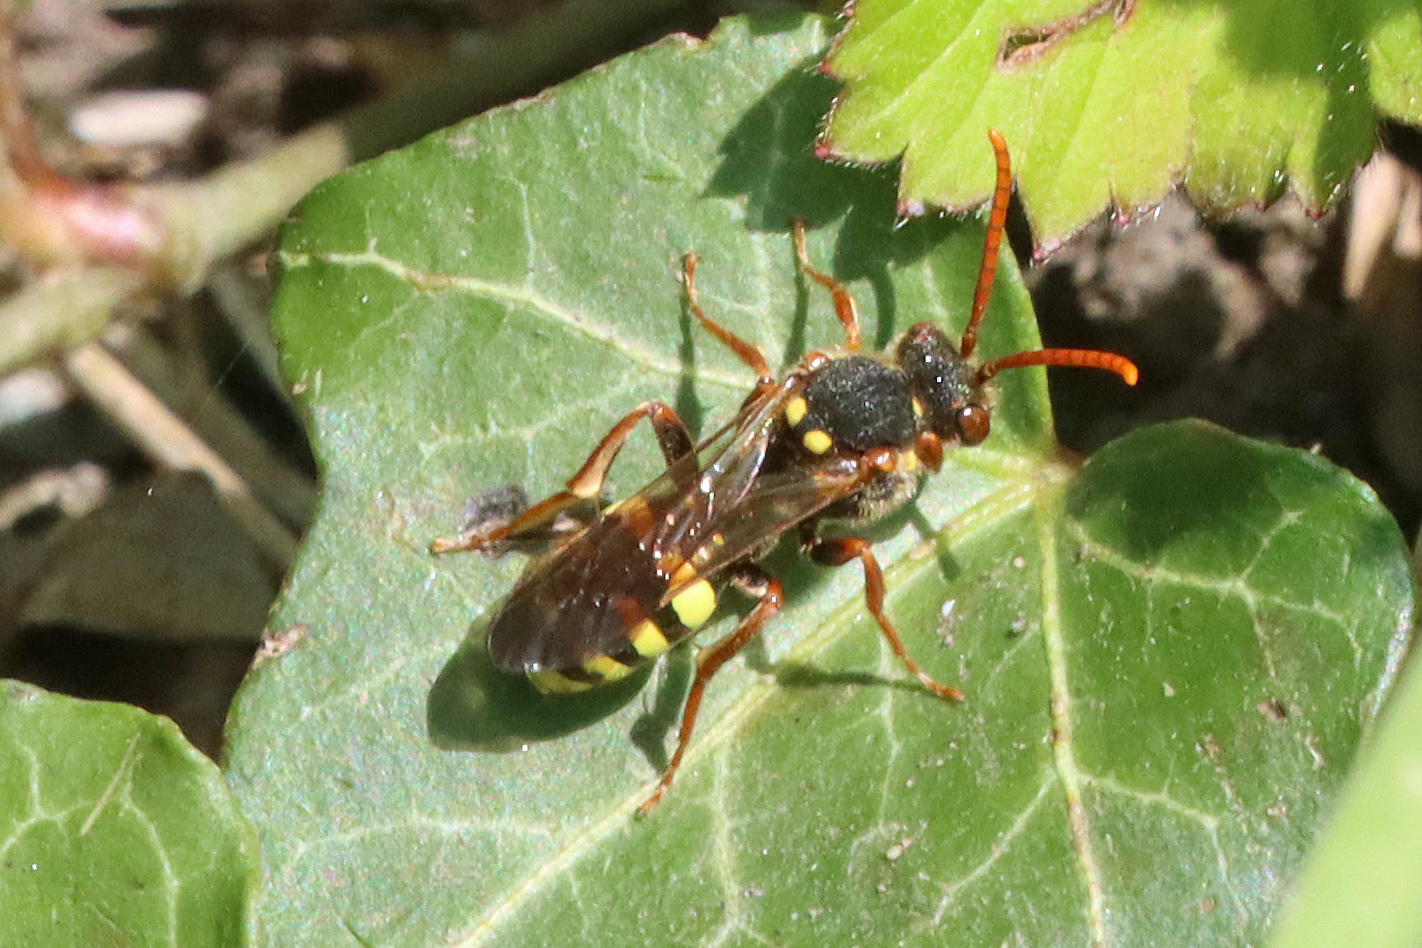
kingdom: Animalia
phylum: Arthropoda
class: Insecta
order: Hymenoptera
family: Apidae
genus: Nomada
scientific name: Nomada marshamella
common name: Marsham's nomad bee
